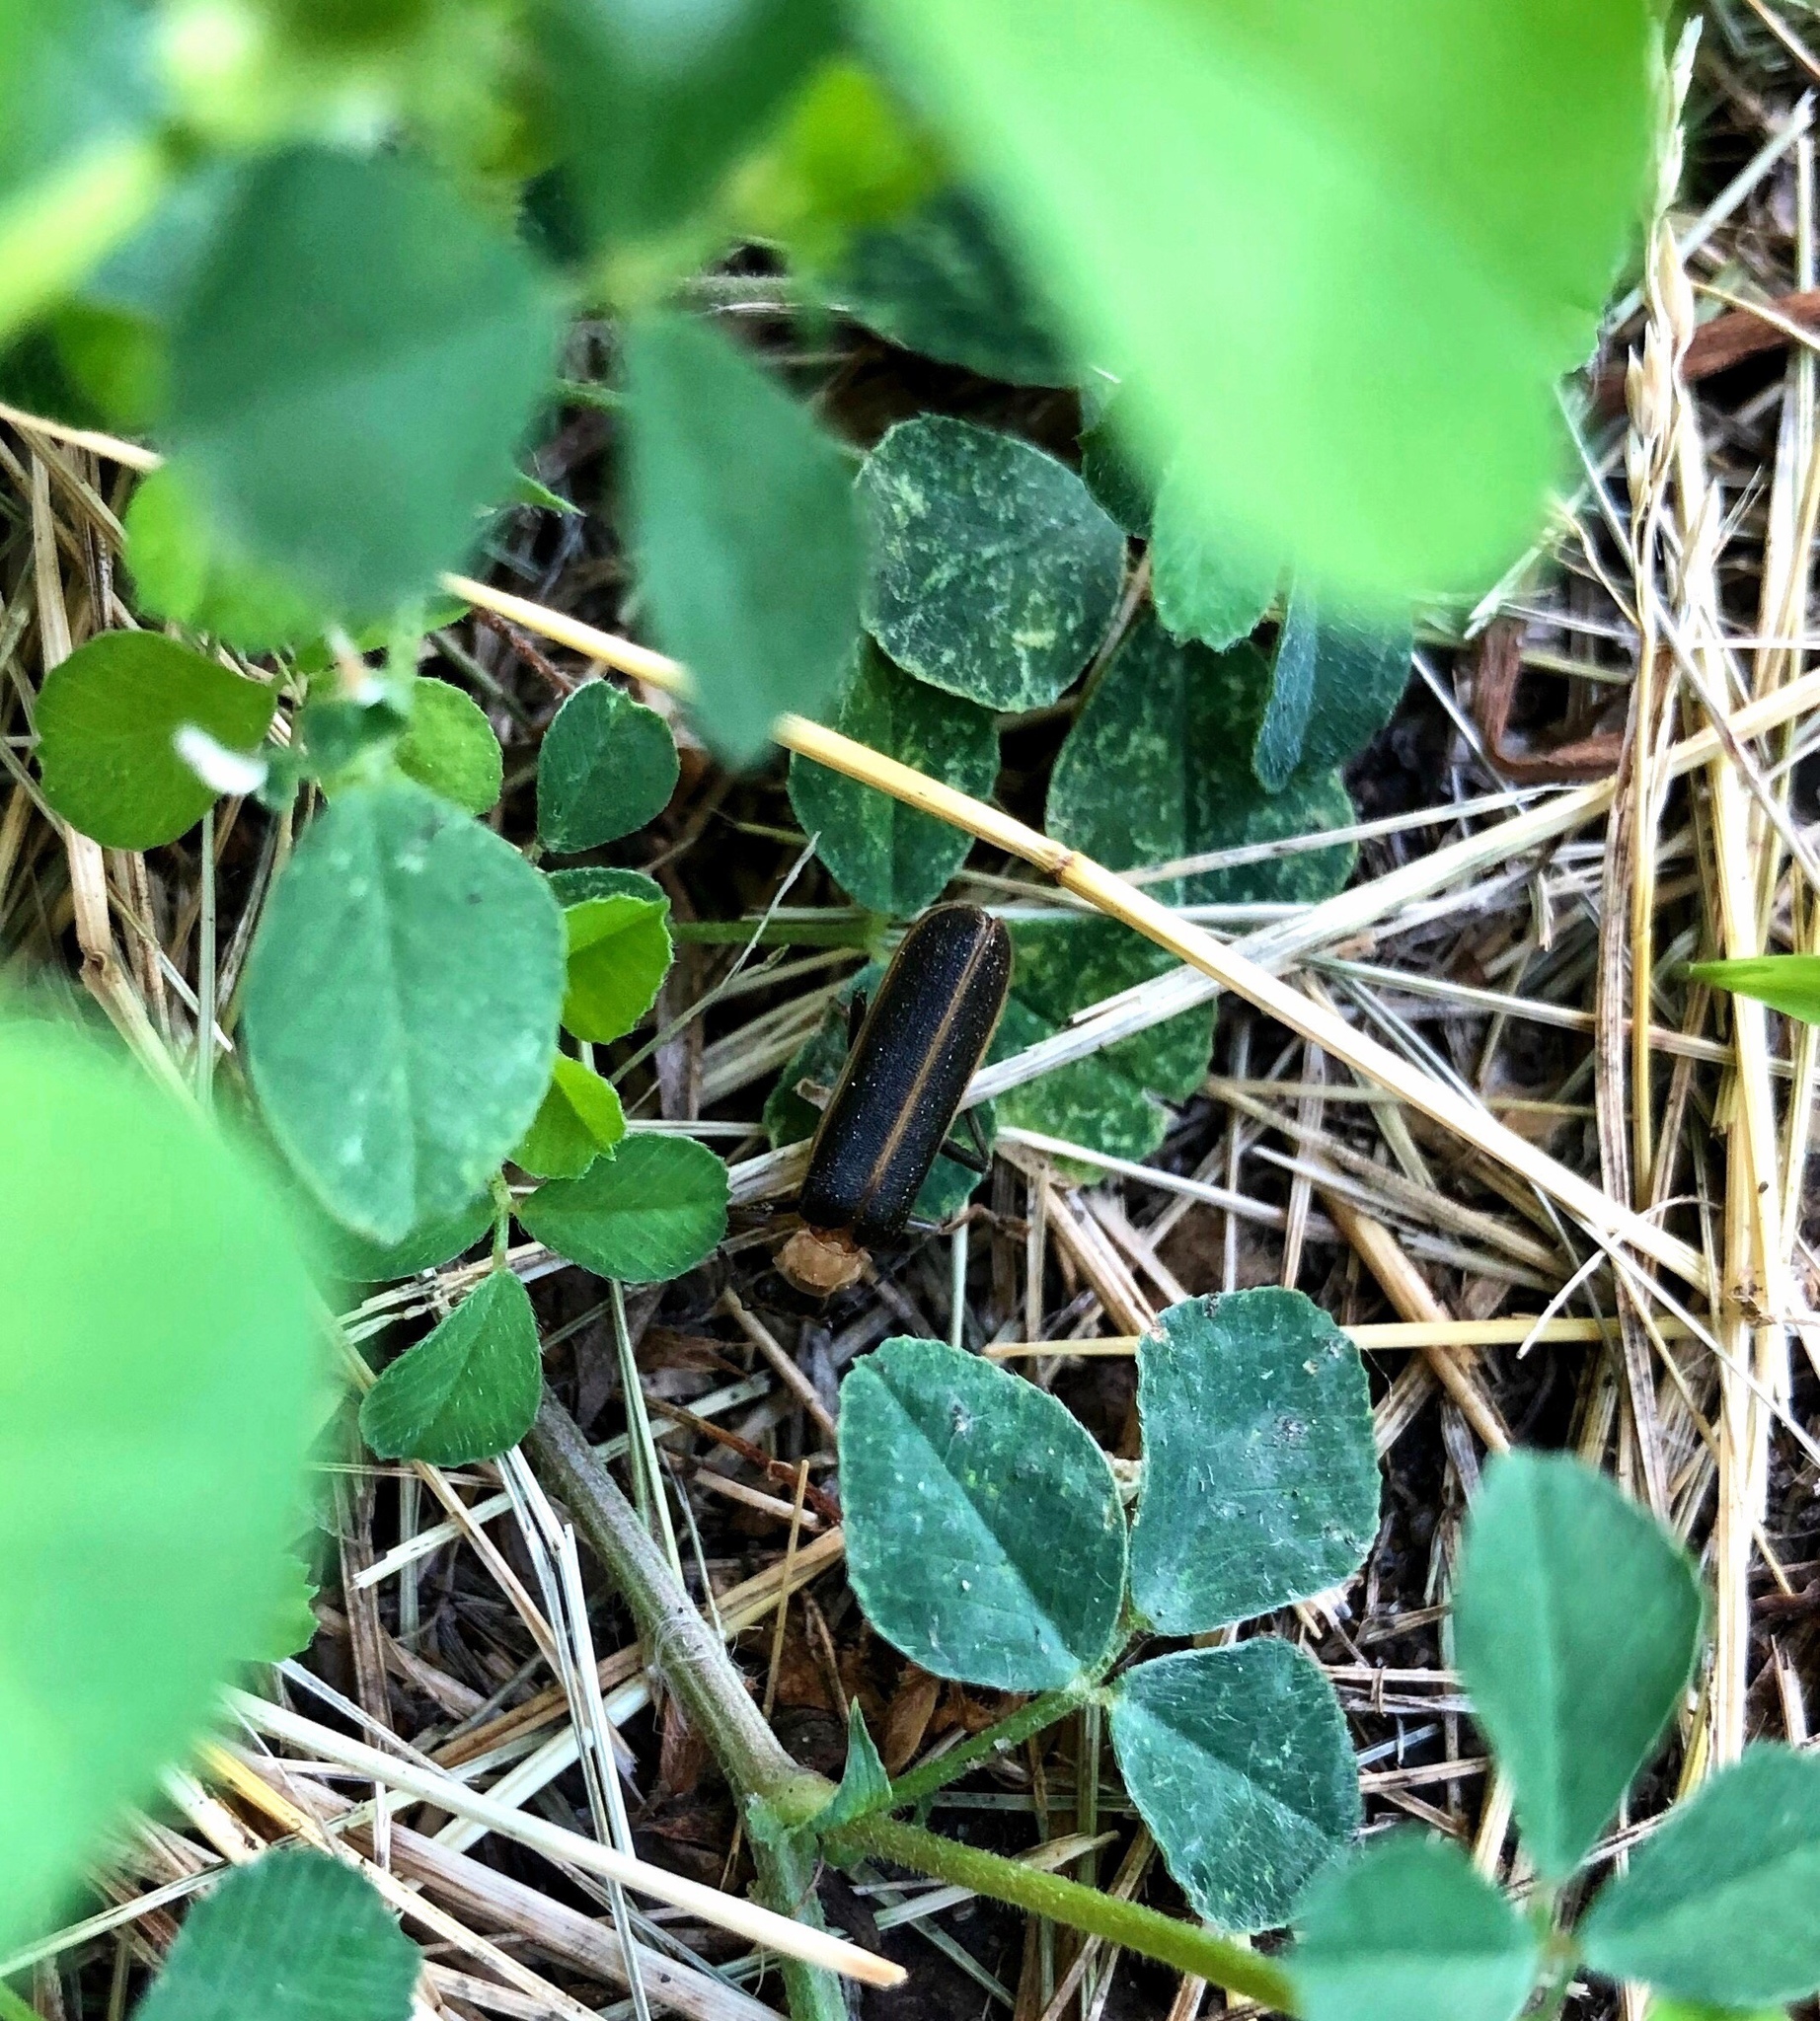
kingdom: Animalia
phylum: Arthropoda
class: Insecta
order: Coleoptera
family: Cantharidae
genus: Podabrus
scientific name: Podabrus flavicollis
